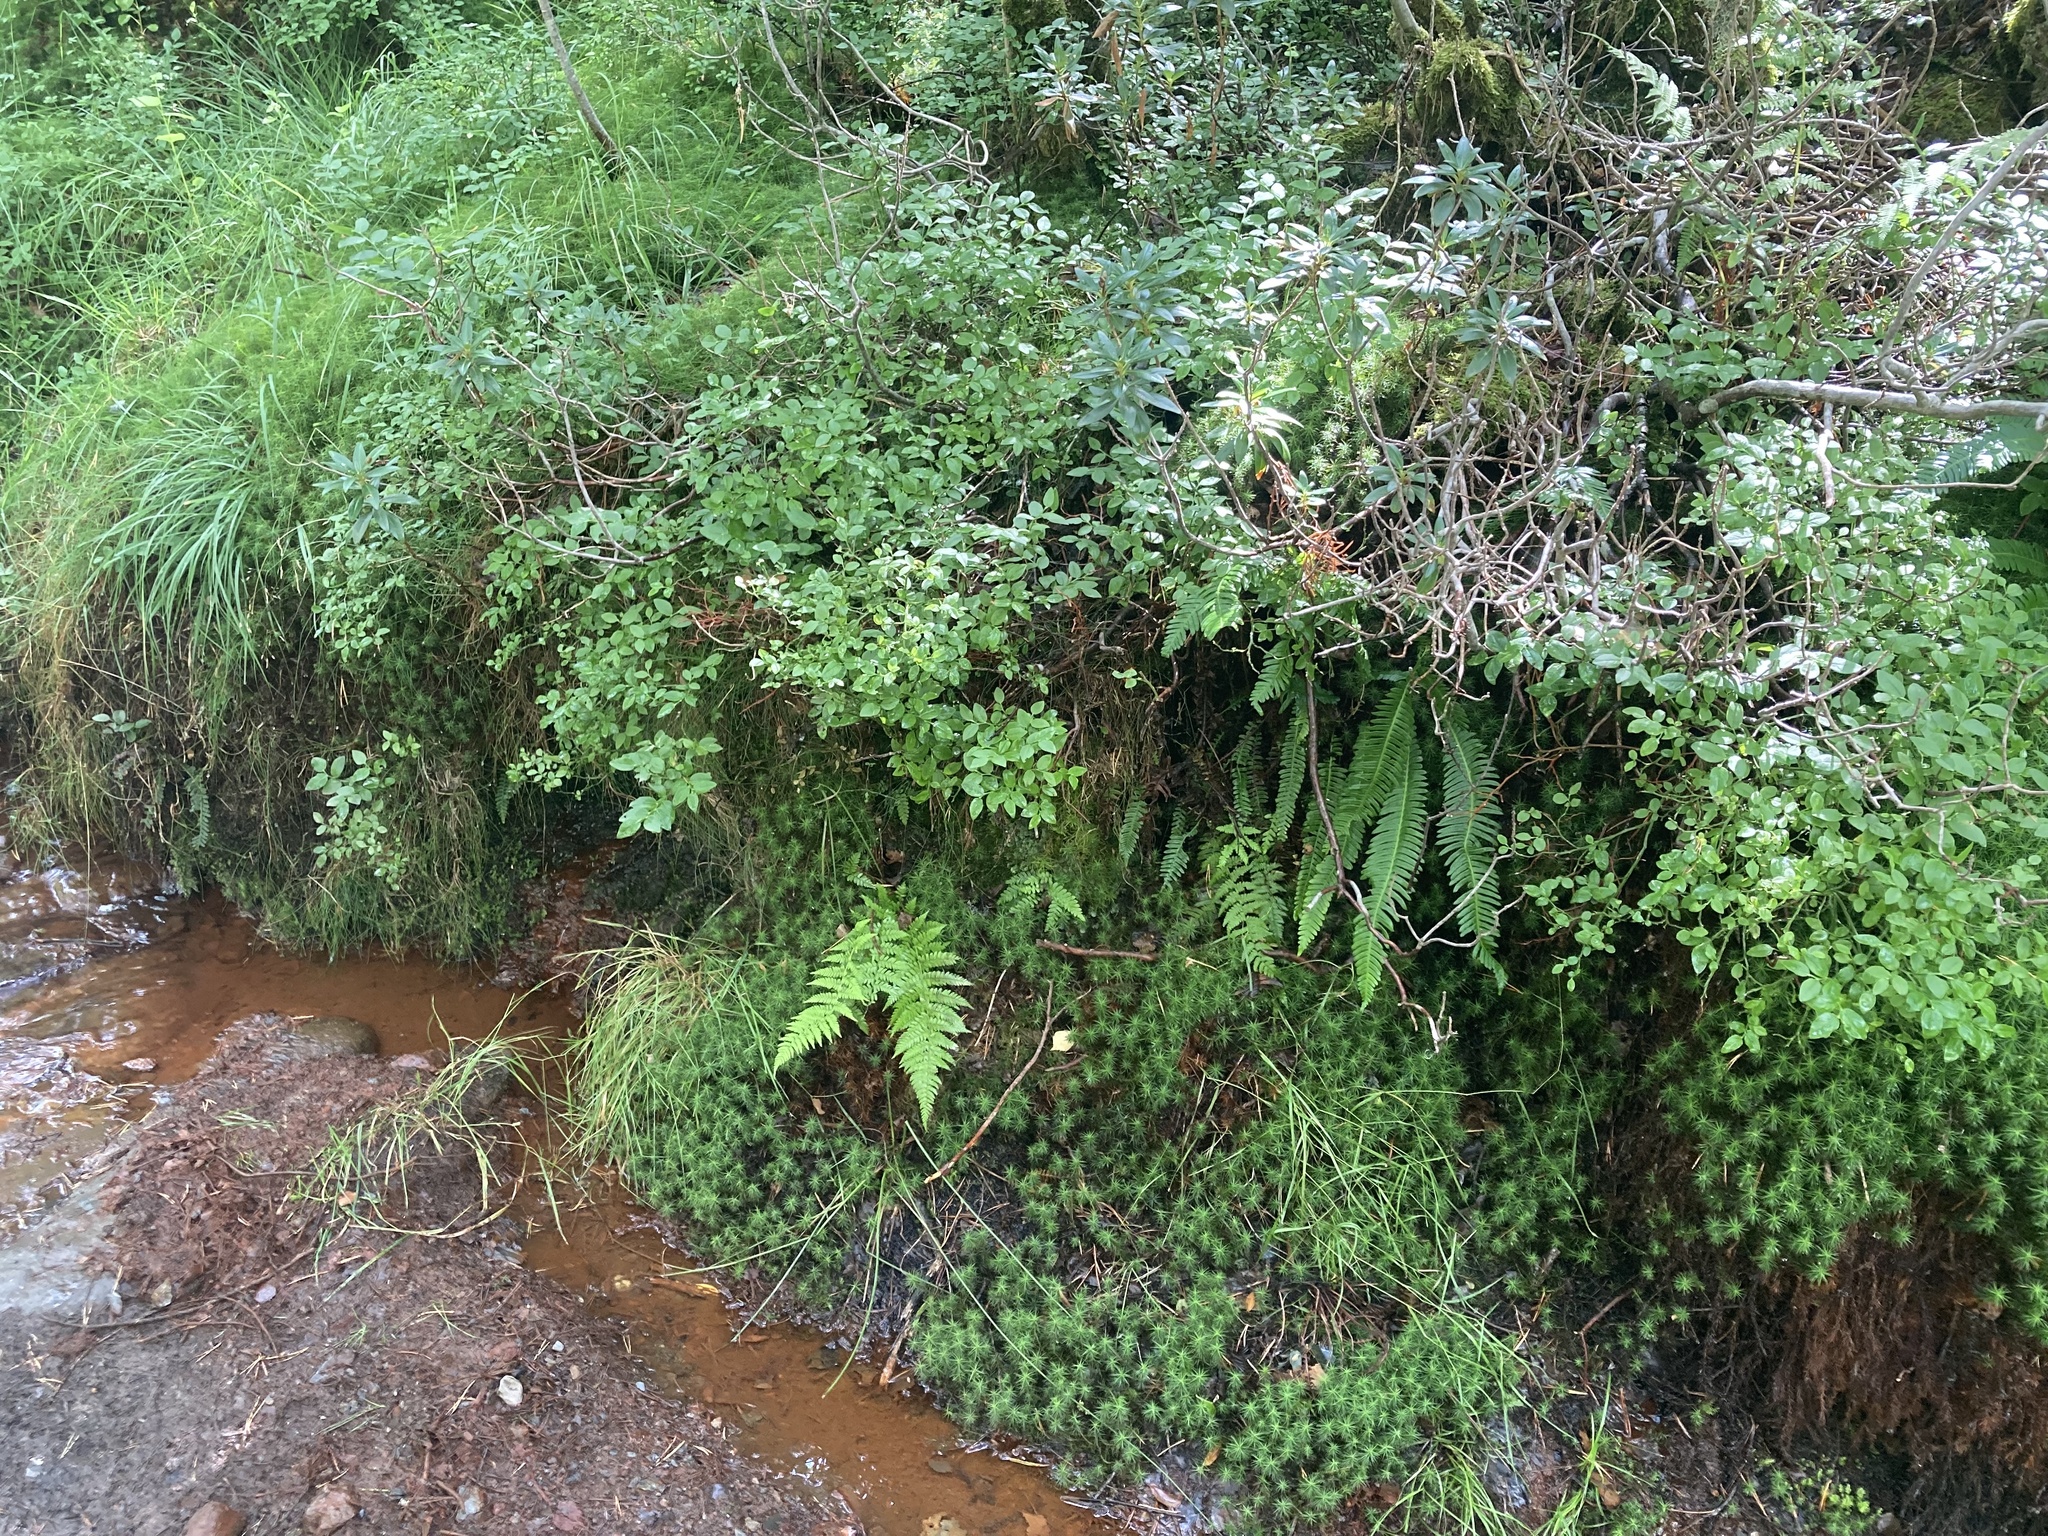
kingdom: Plantae
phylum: Tracheophyta
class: Polypodiopsida
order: Polypodiales
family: Blechnaceae
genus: Struthiopteris
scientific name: Struthiopteris spicant
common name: Deer fern
